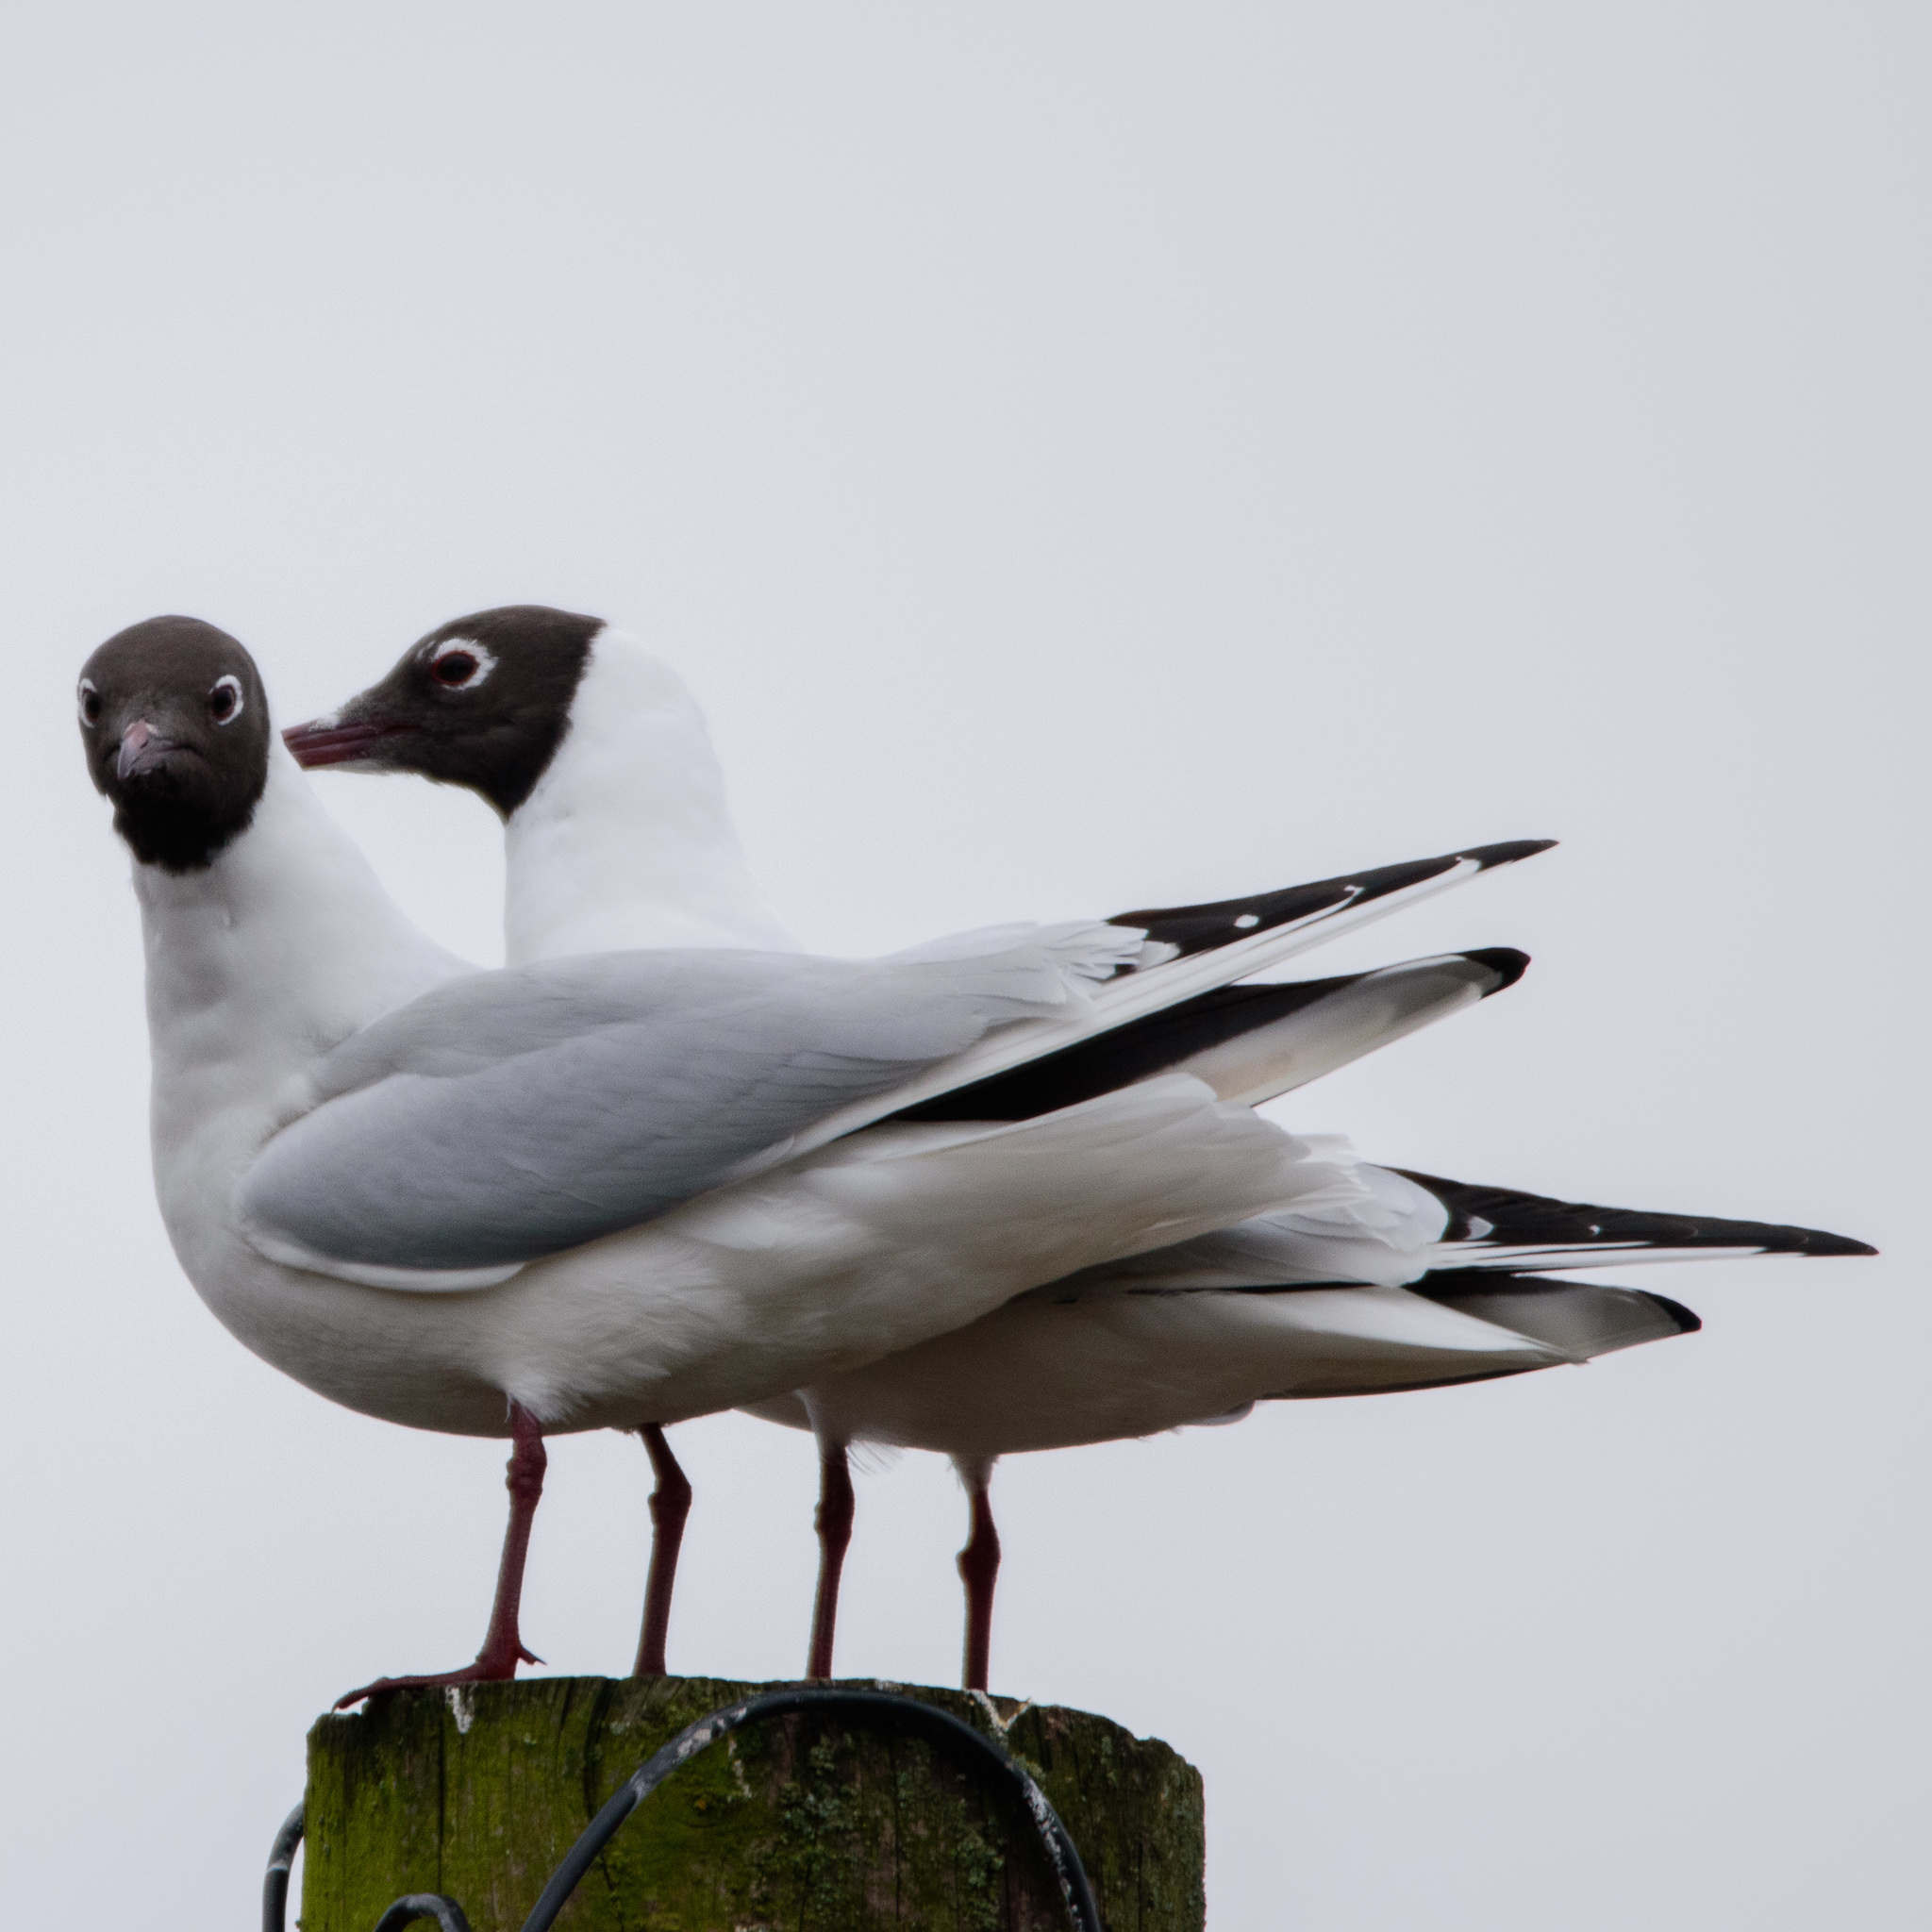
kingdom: Animalia
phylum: Chordata
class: Aves
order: Charadriiformes
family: Laridae
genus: Chroicocephalus
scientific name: Chroicocephalus ridibundus
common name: Black-headed gull
